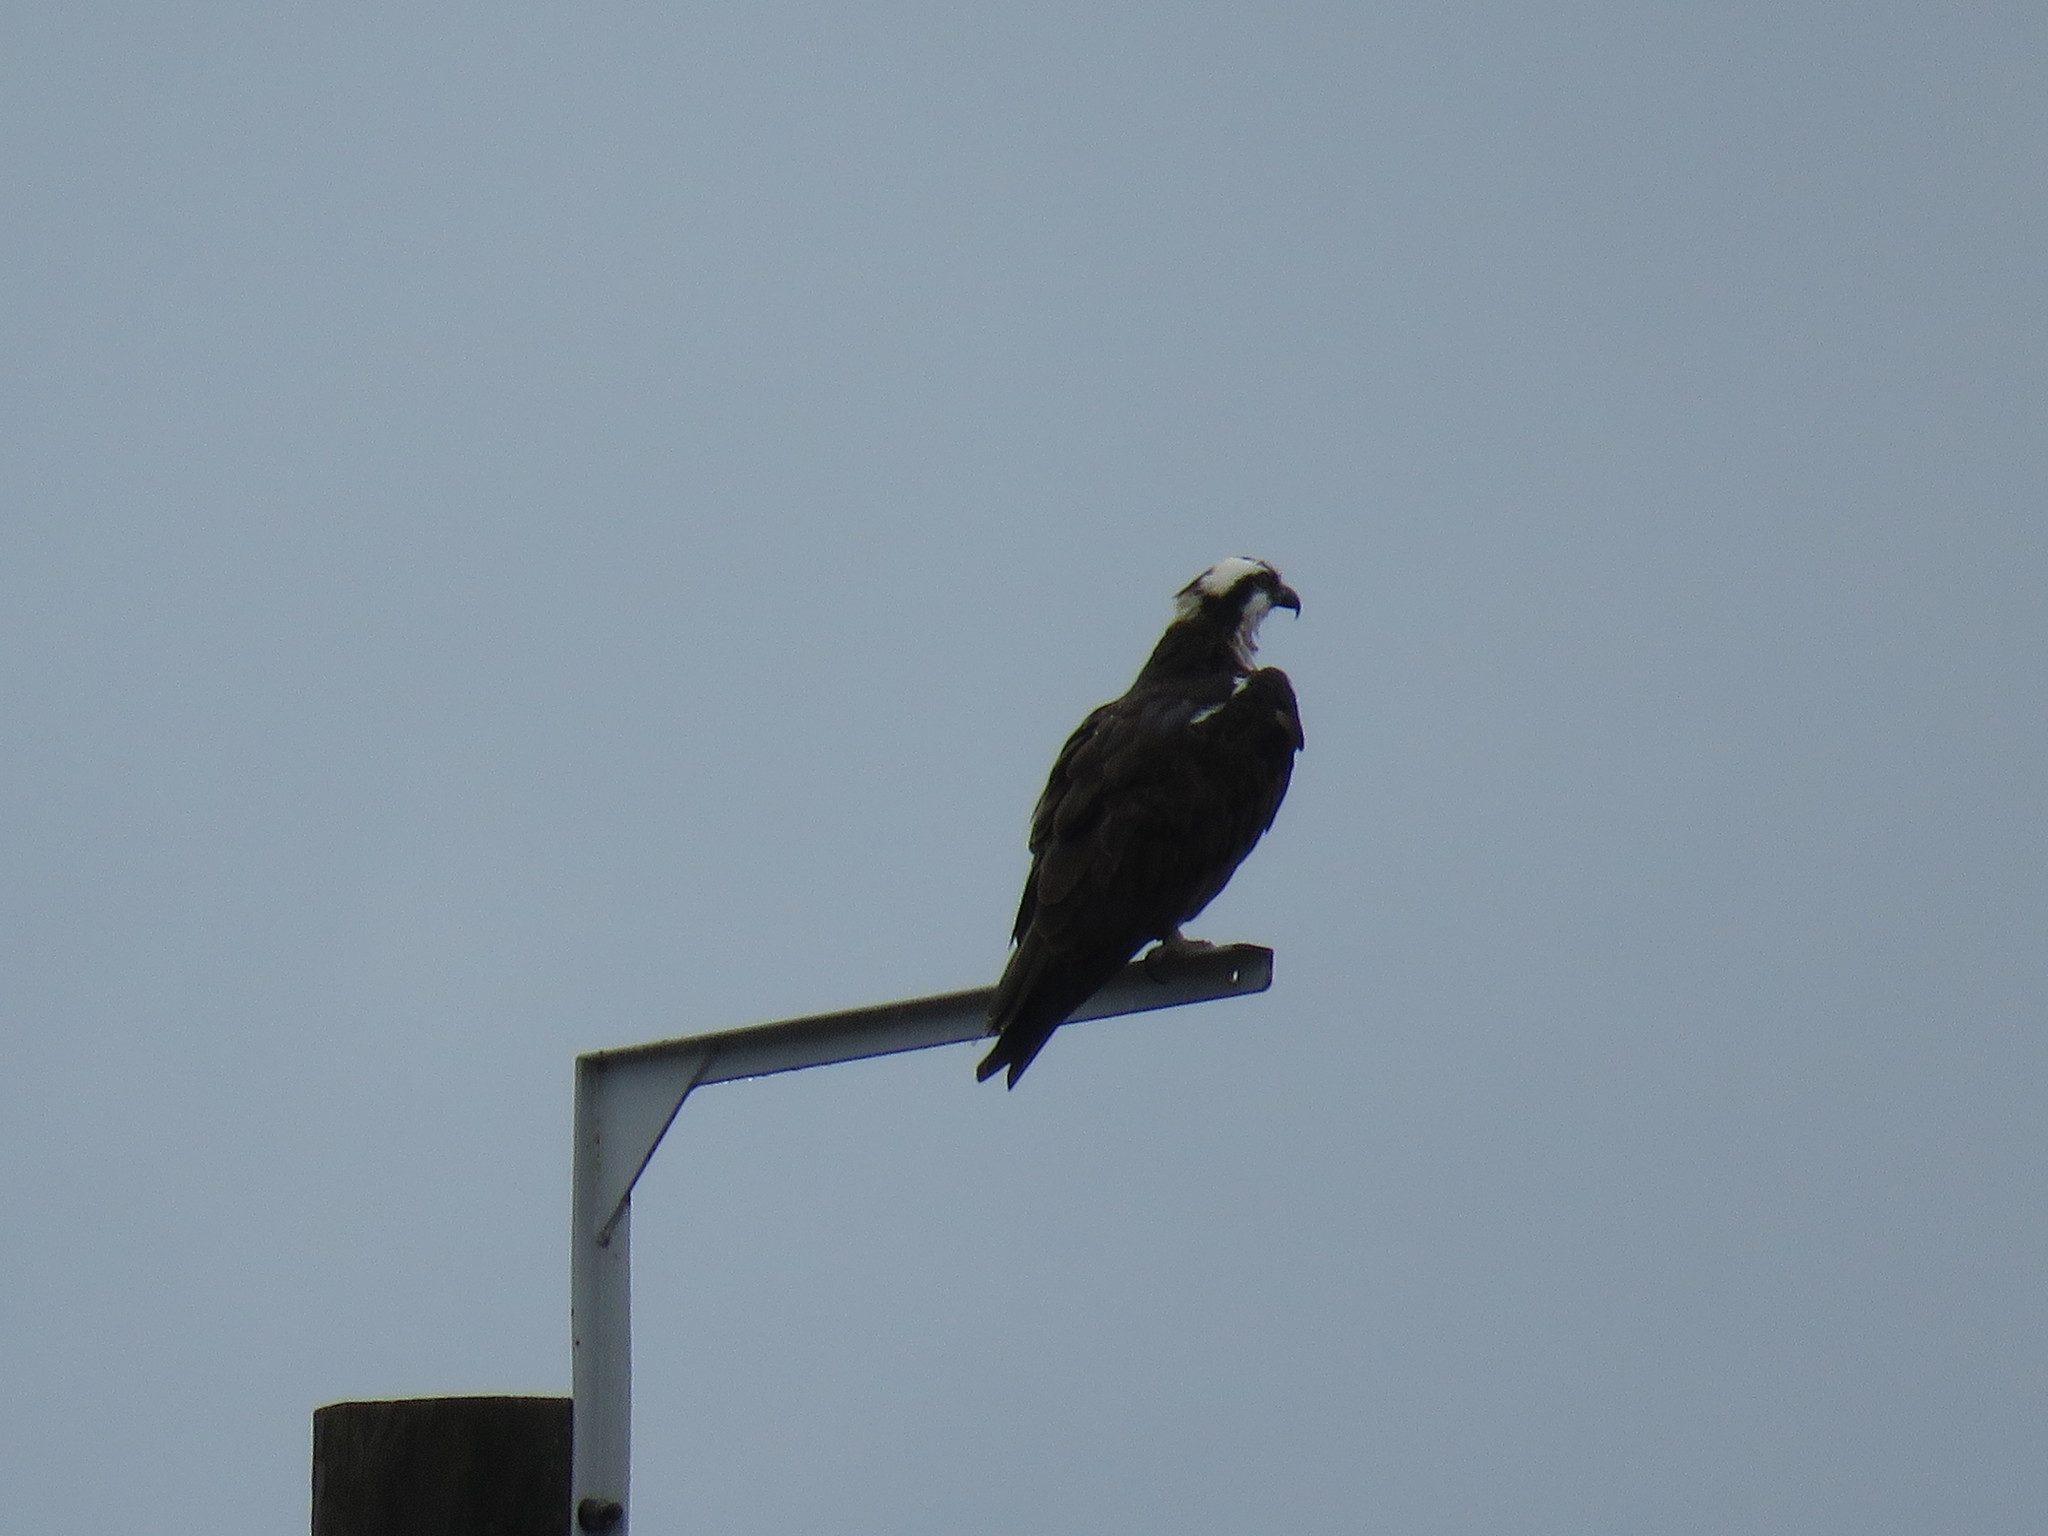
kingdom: Animalia
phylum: Chordata
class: Aves
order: Accipitriformes
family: Pandionidae
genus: Pandion
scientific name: Pandion haliaetus
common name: Osprey
